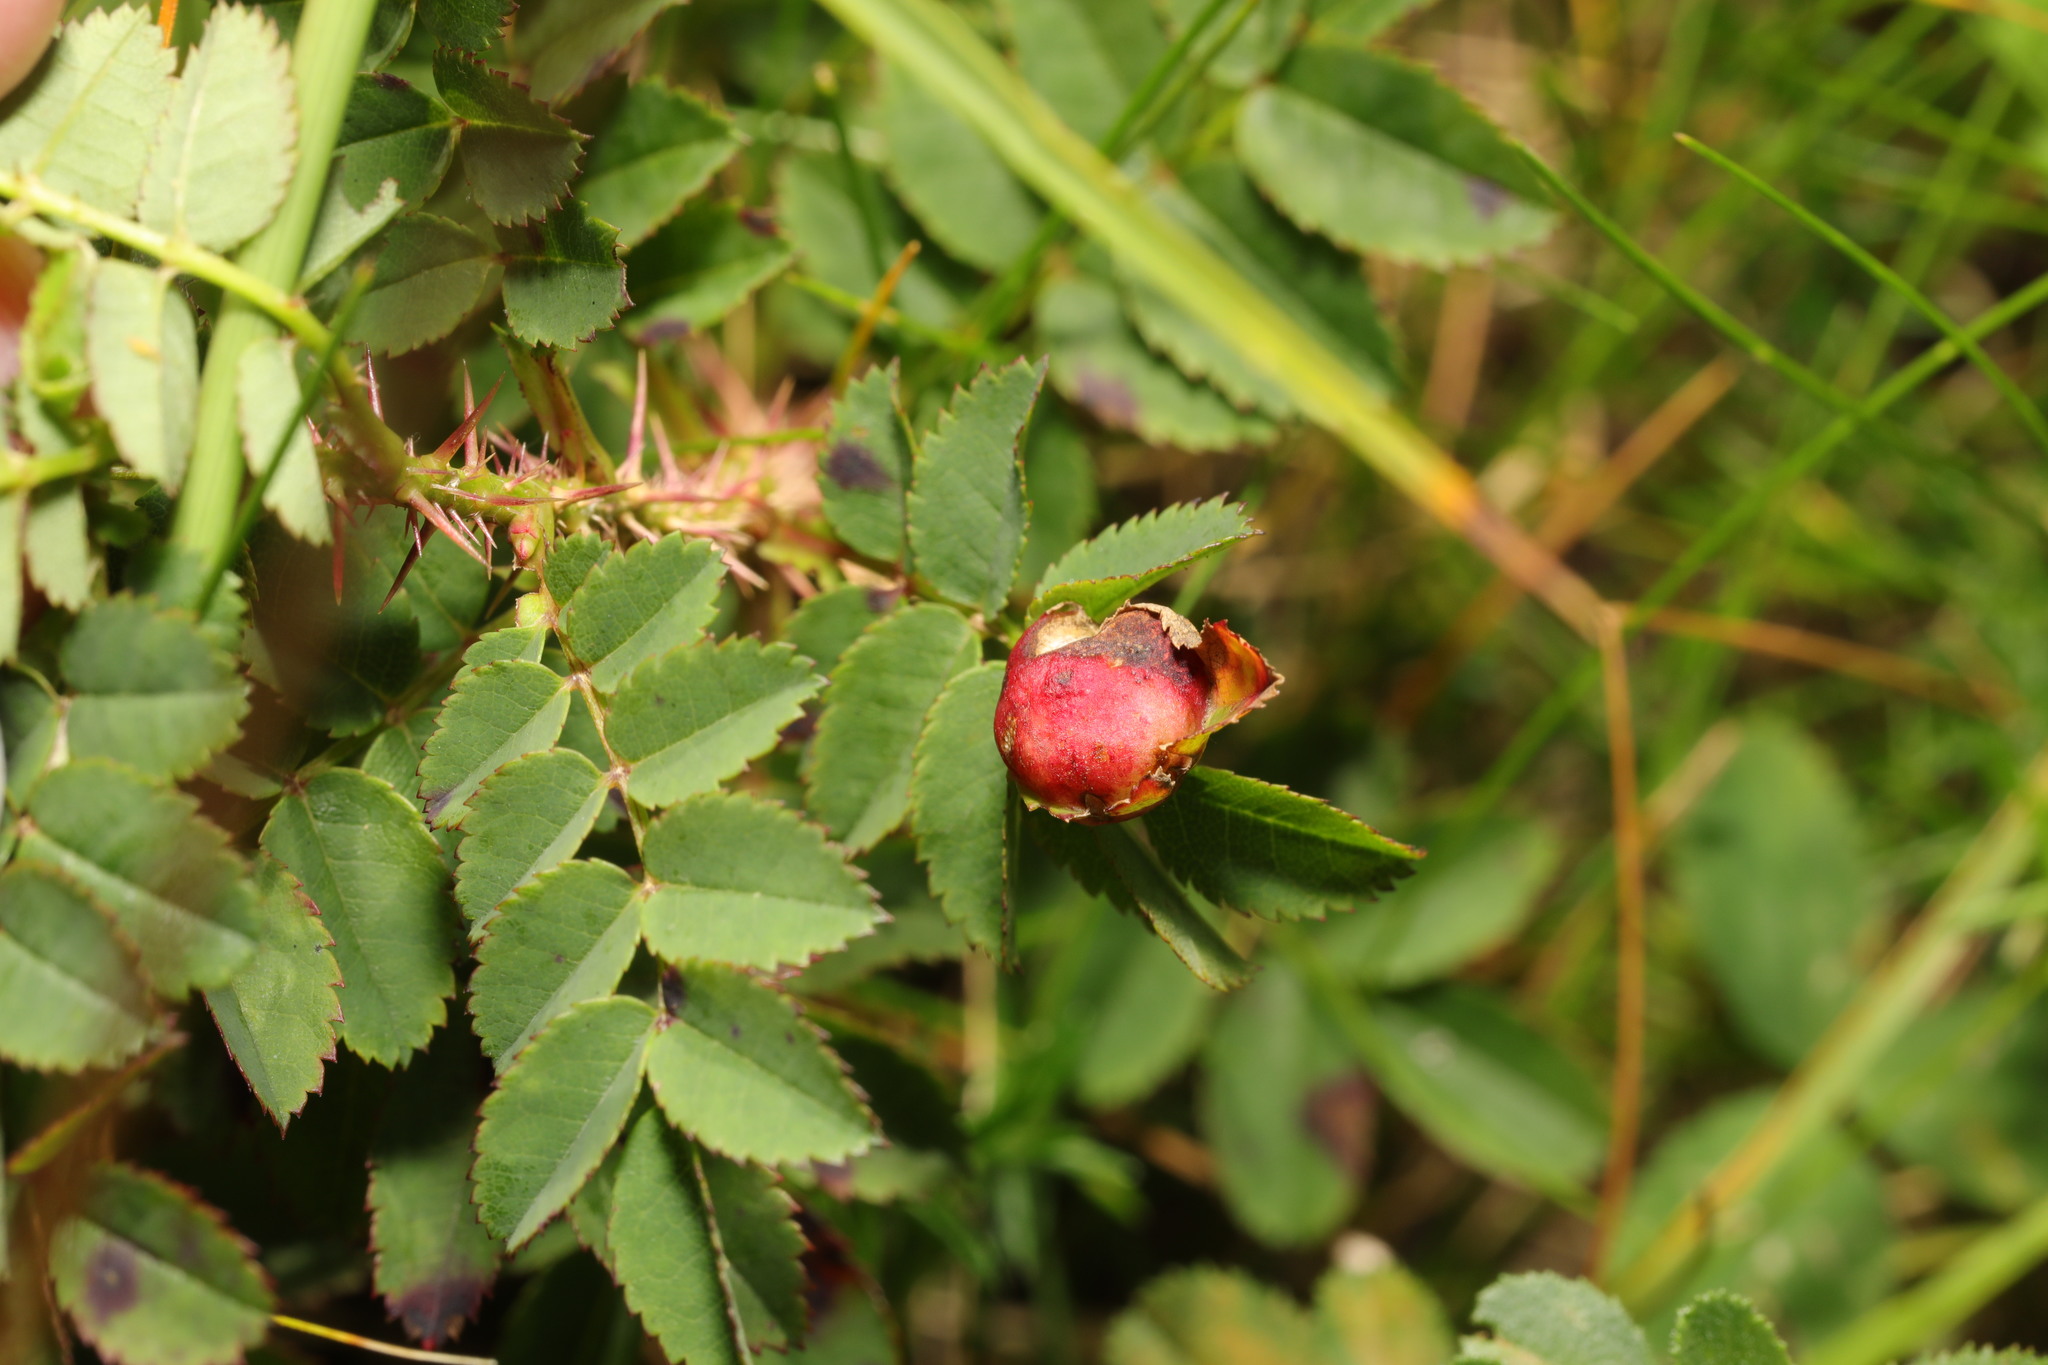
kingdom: Animalia
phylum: Arthropoda
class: Insecta
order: Hymenoptera
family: Cynipidae
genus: Diplolepis
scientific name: Diplolepis spinosissimae
